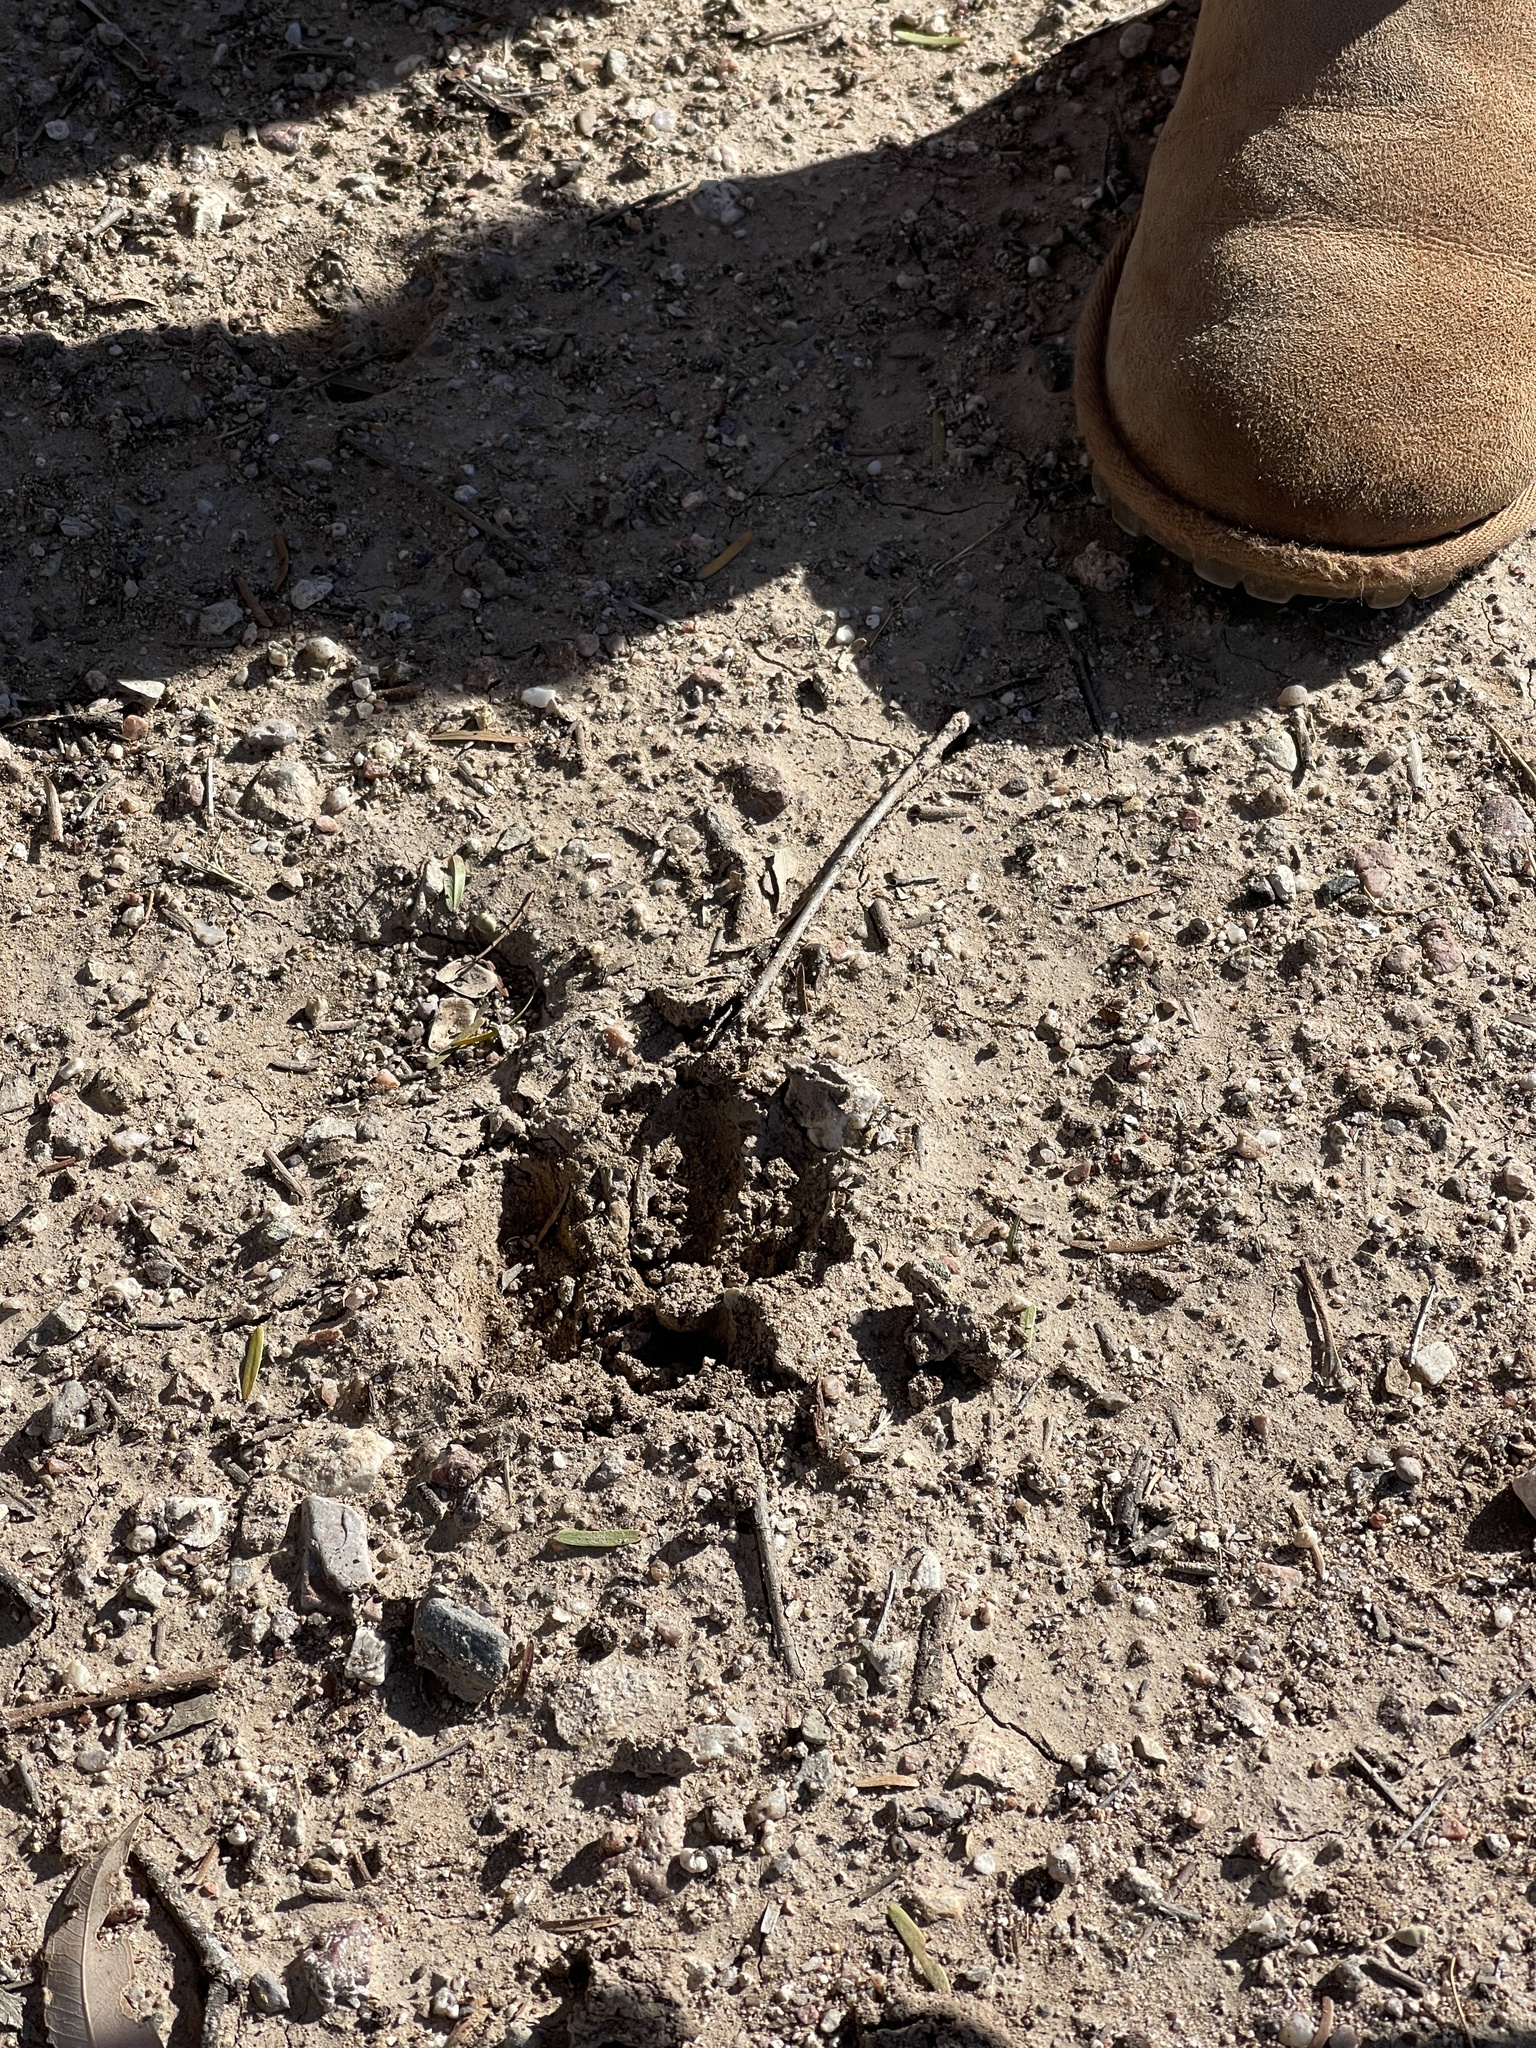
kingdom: Animalia
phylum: Chordata
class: Mammalia
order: Artiodactyla
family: Tayassuidae
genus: Pecari
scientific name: Pecari tajacu
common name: Collared peccary
